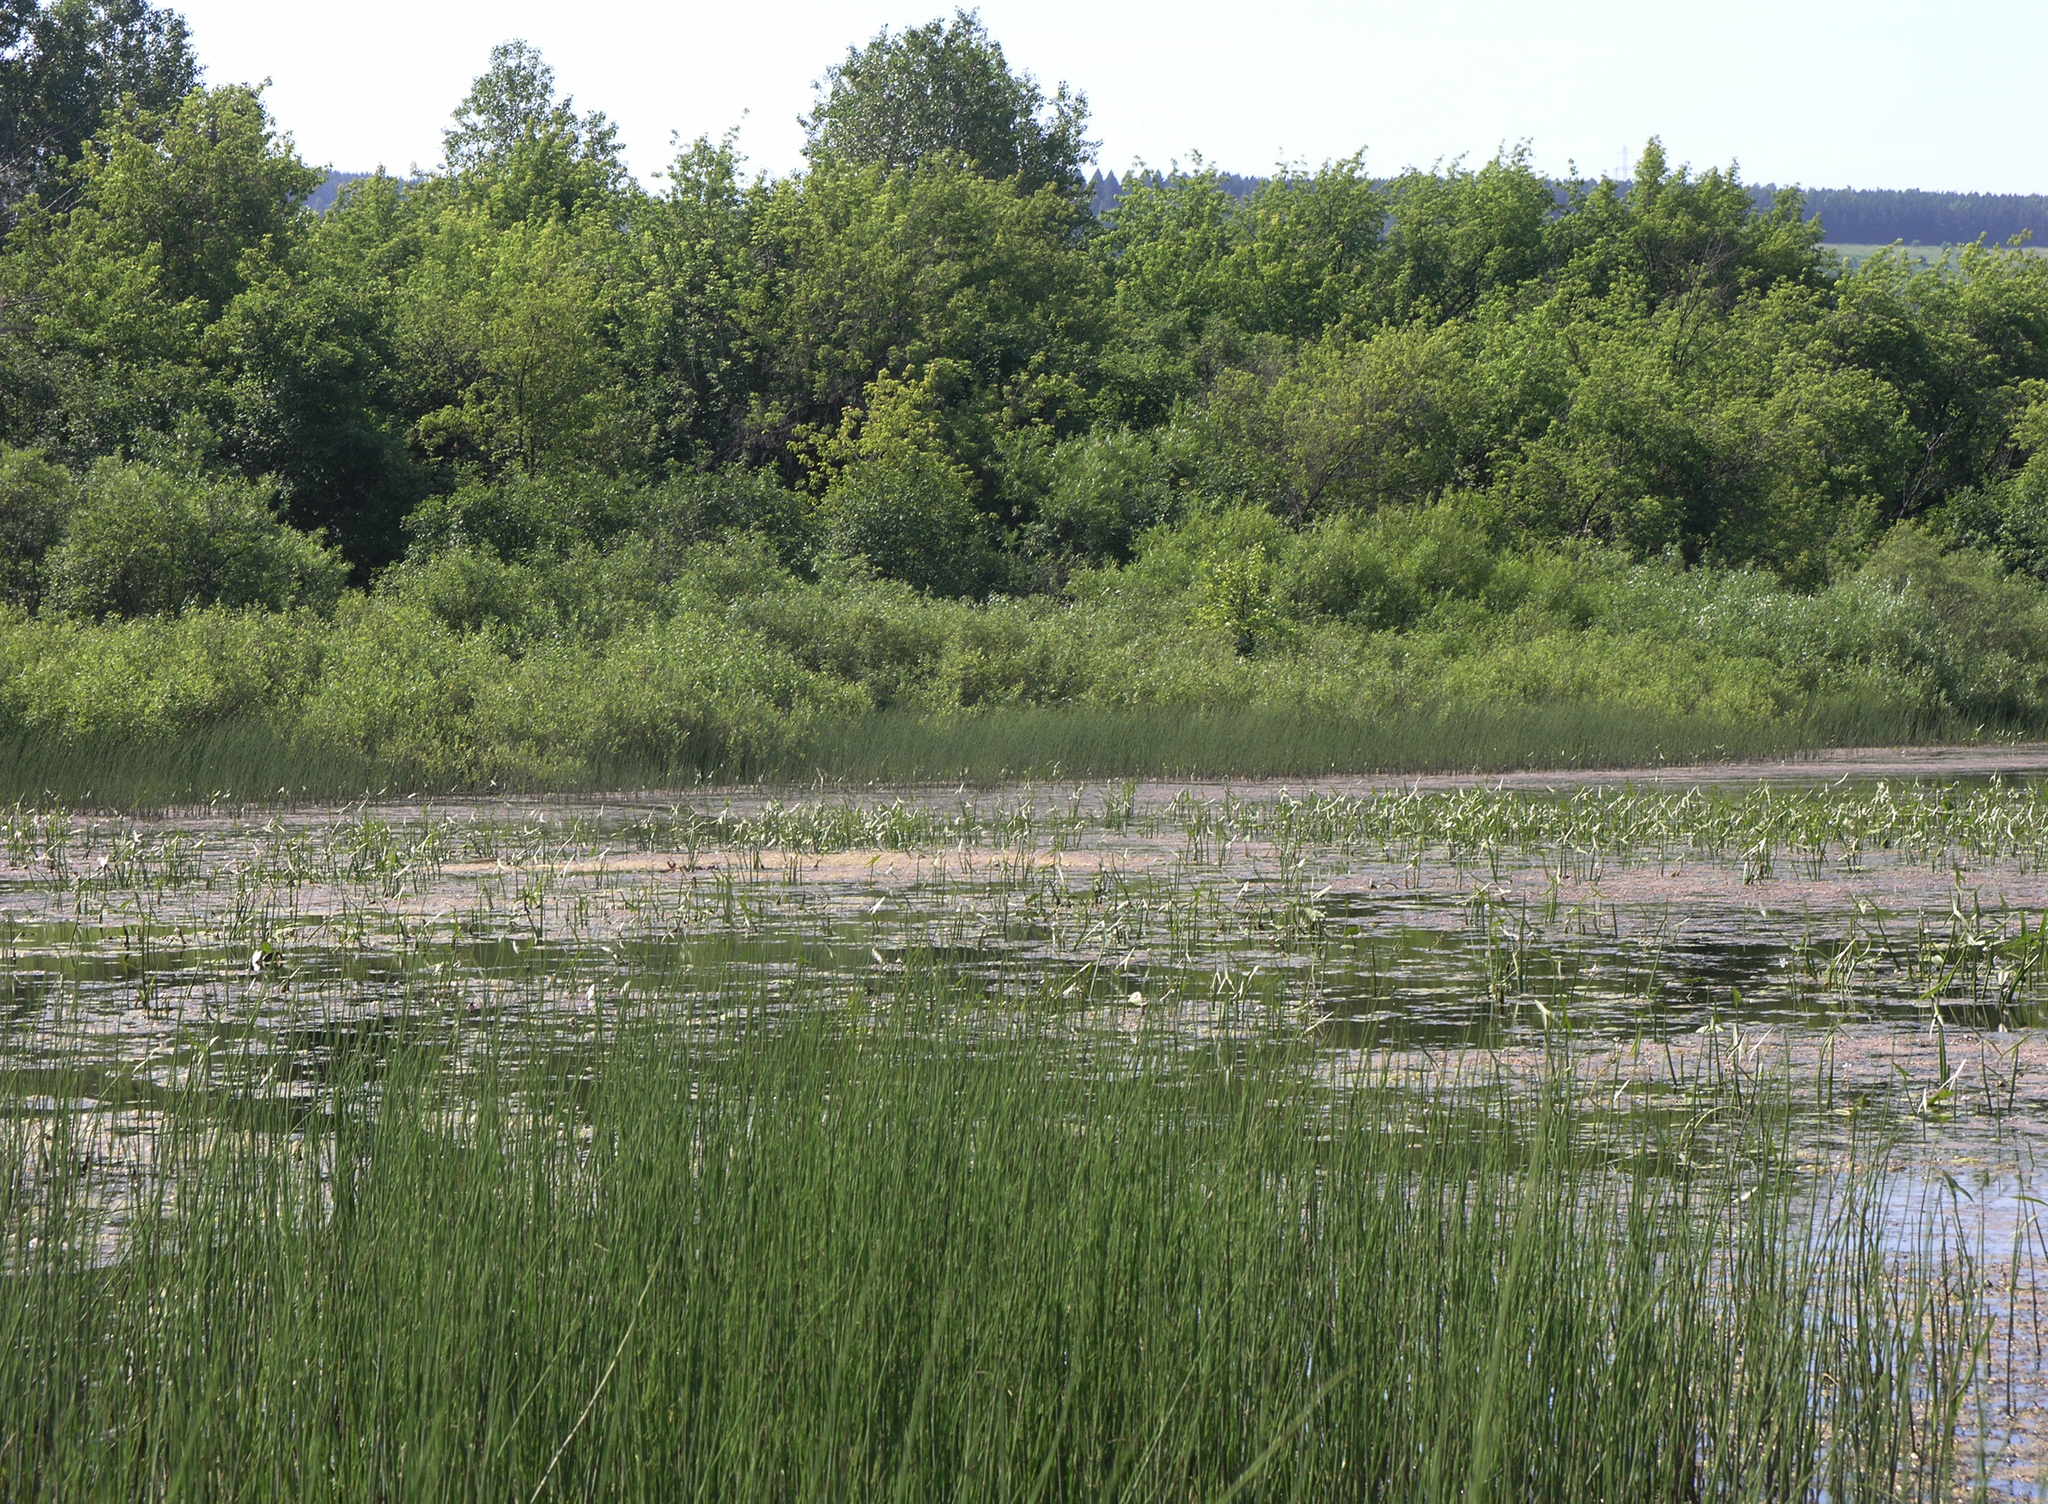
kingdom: Plantae
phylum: Tracheophyta
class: Polypodiopsida
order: Equisetales
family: Equisetaceae
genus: Equisetum
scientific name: Equisetum fluviatile
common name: Water horsetail
